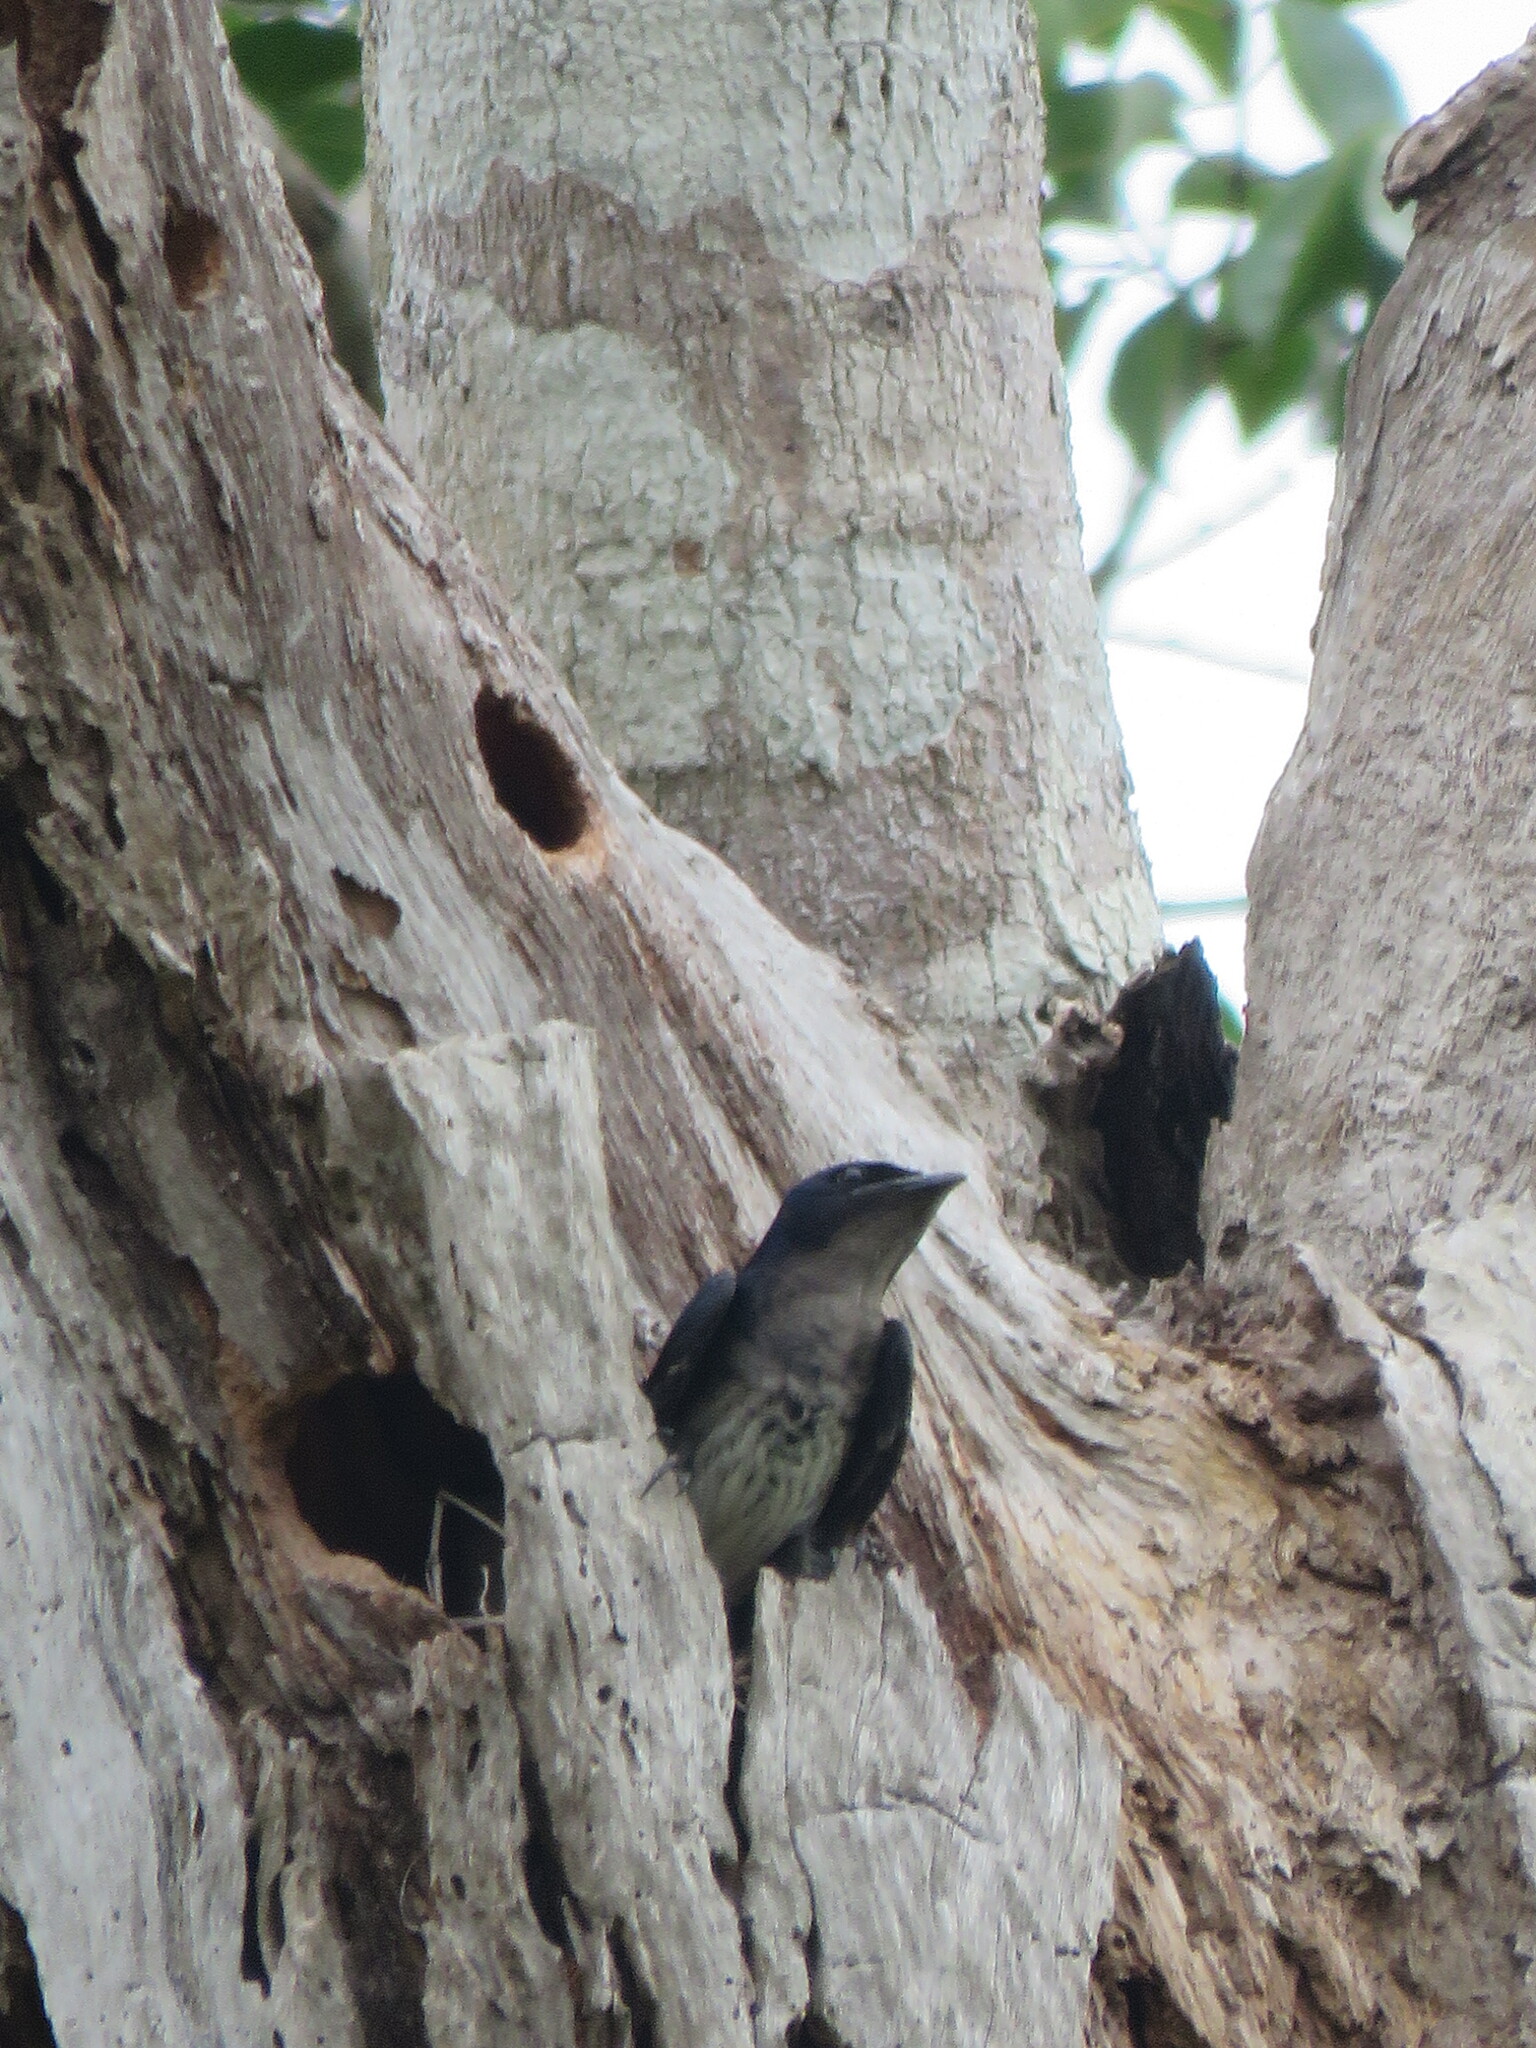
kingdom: Animalia
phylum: Chordata
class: Aves
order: Passeriformes
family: Hirundinidae
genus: Progne
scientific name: Progne chalybea
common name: Grey-breasted martin
